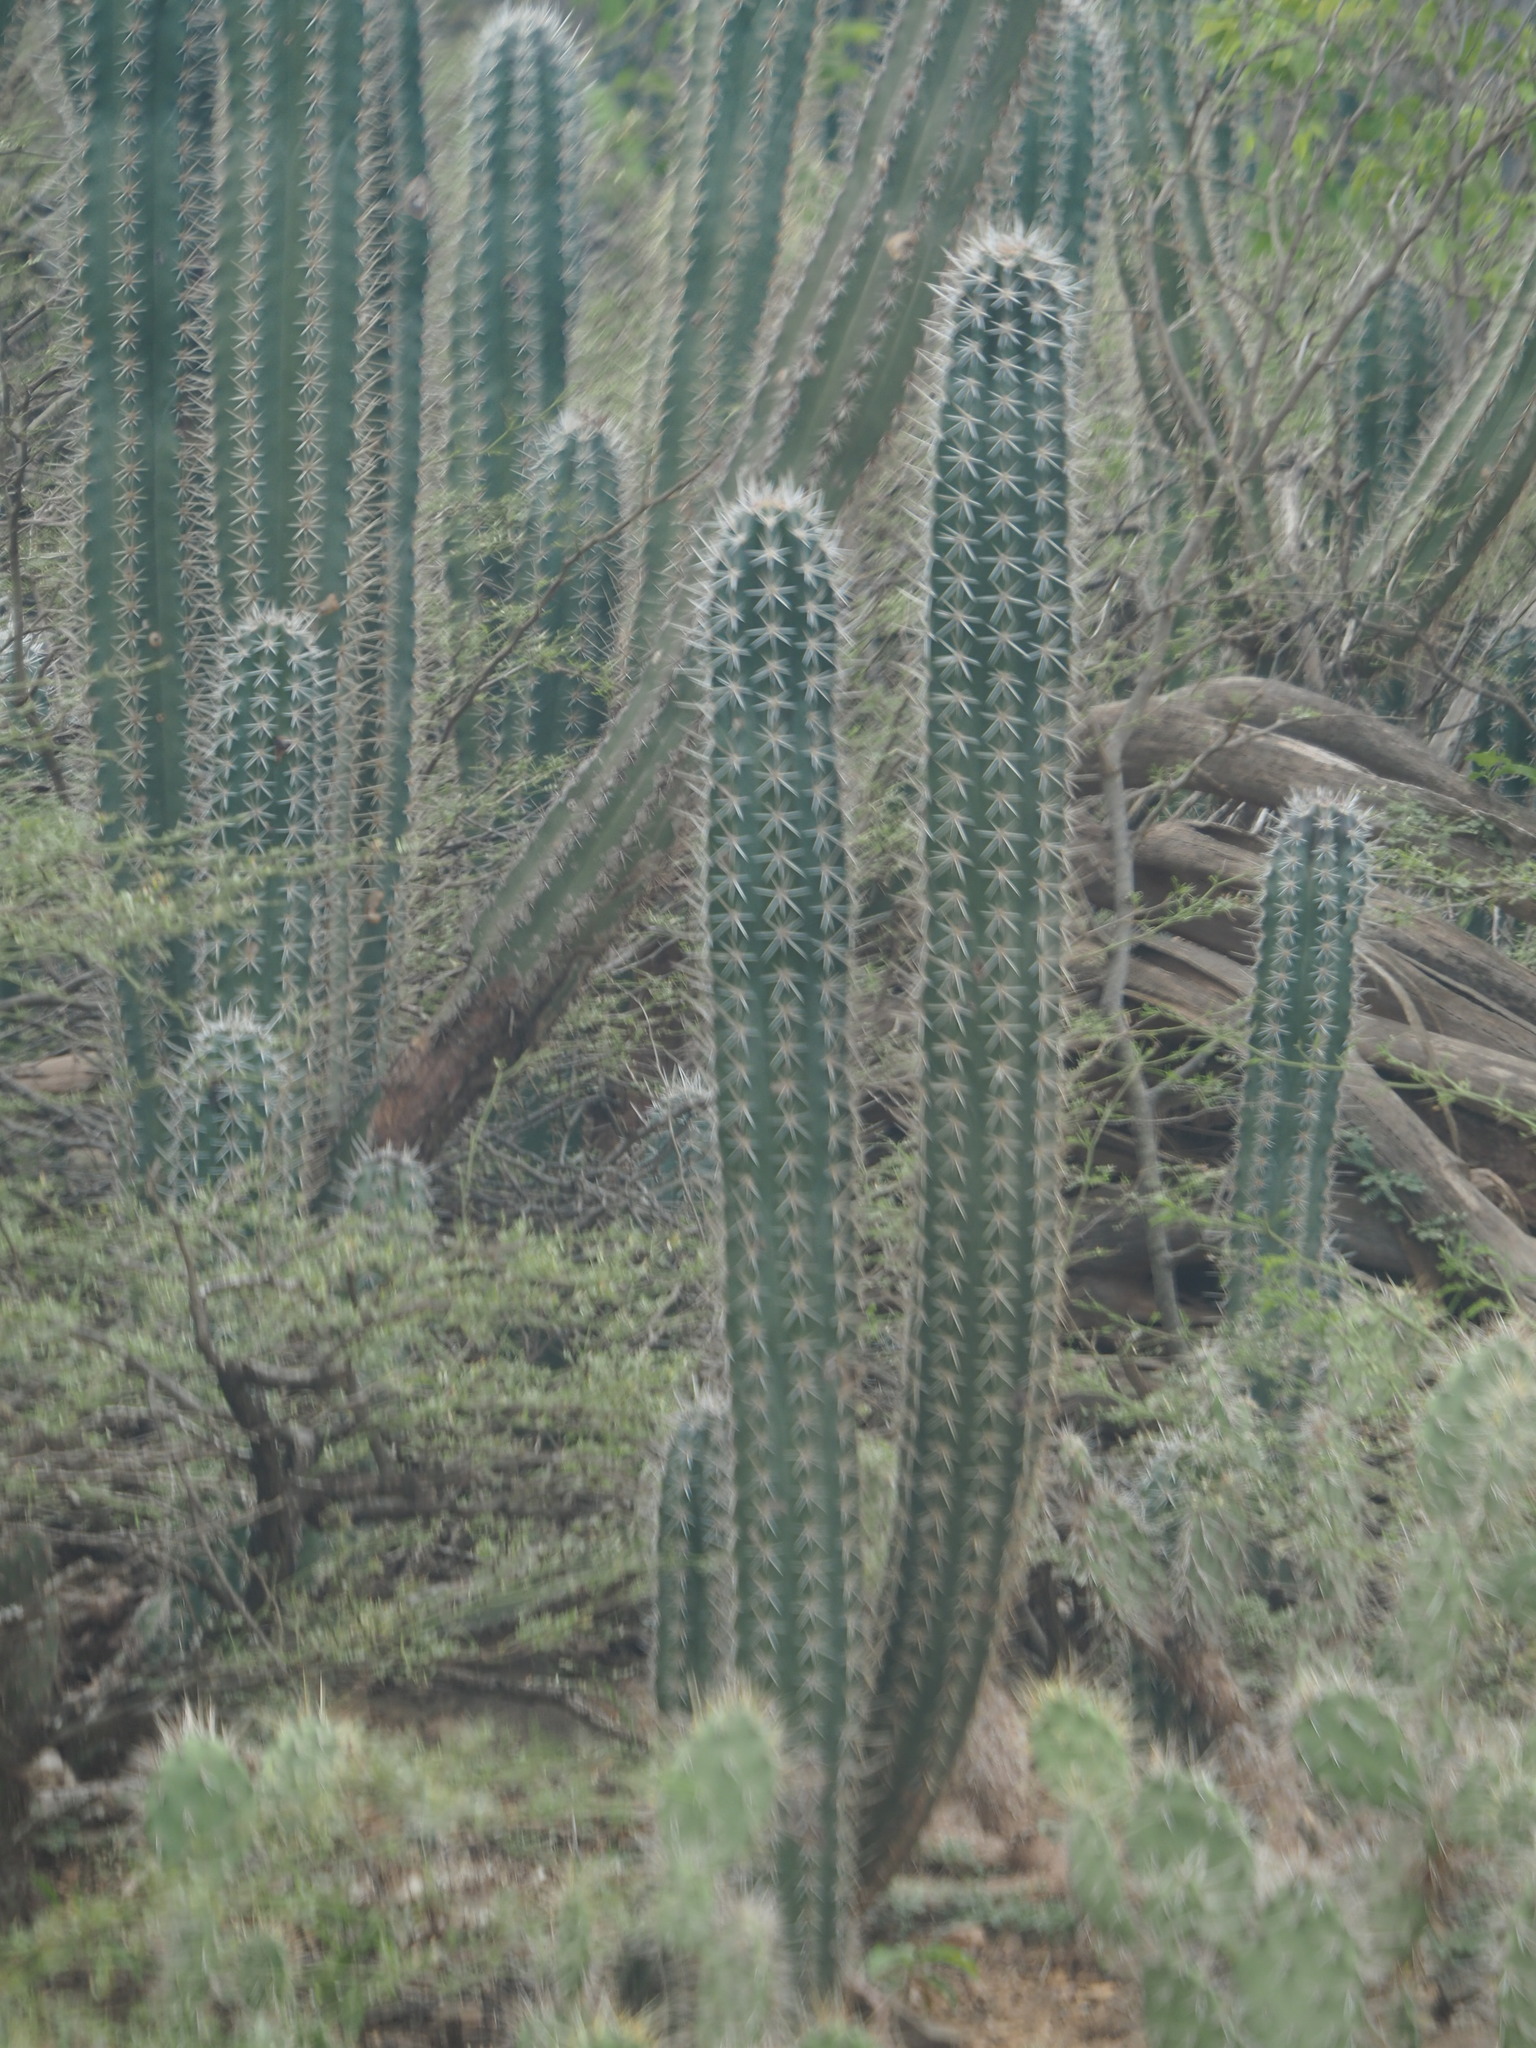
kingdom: Plantae
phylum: Tracheophyta
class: Magnoliopsida
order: Caryophyllales
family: Cactaceae
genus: Stenocereus
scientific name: Stenocereus griseus
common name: Tall candelabra cactus
